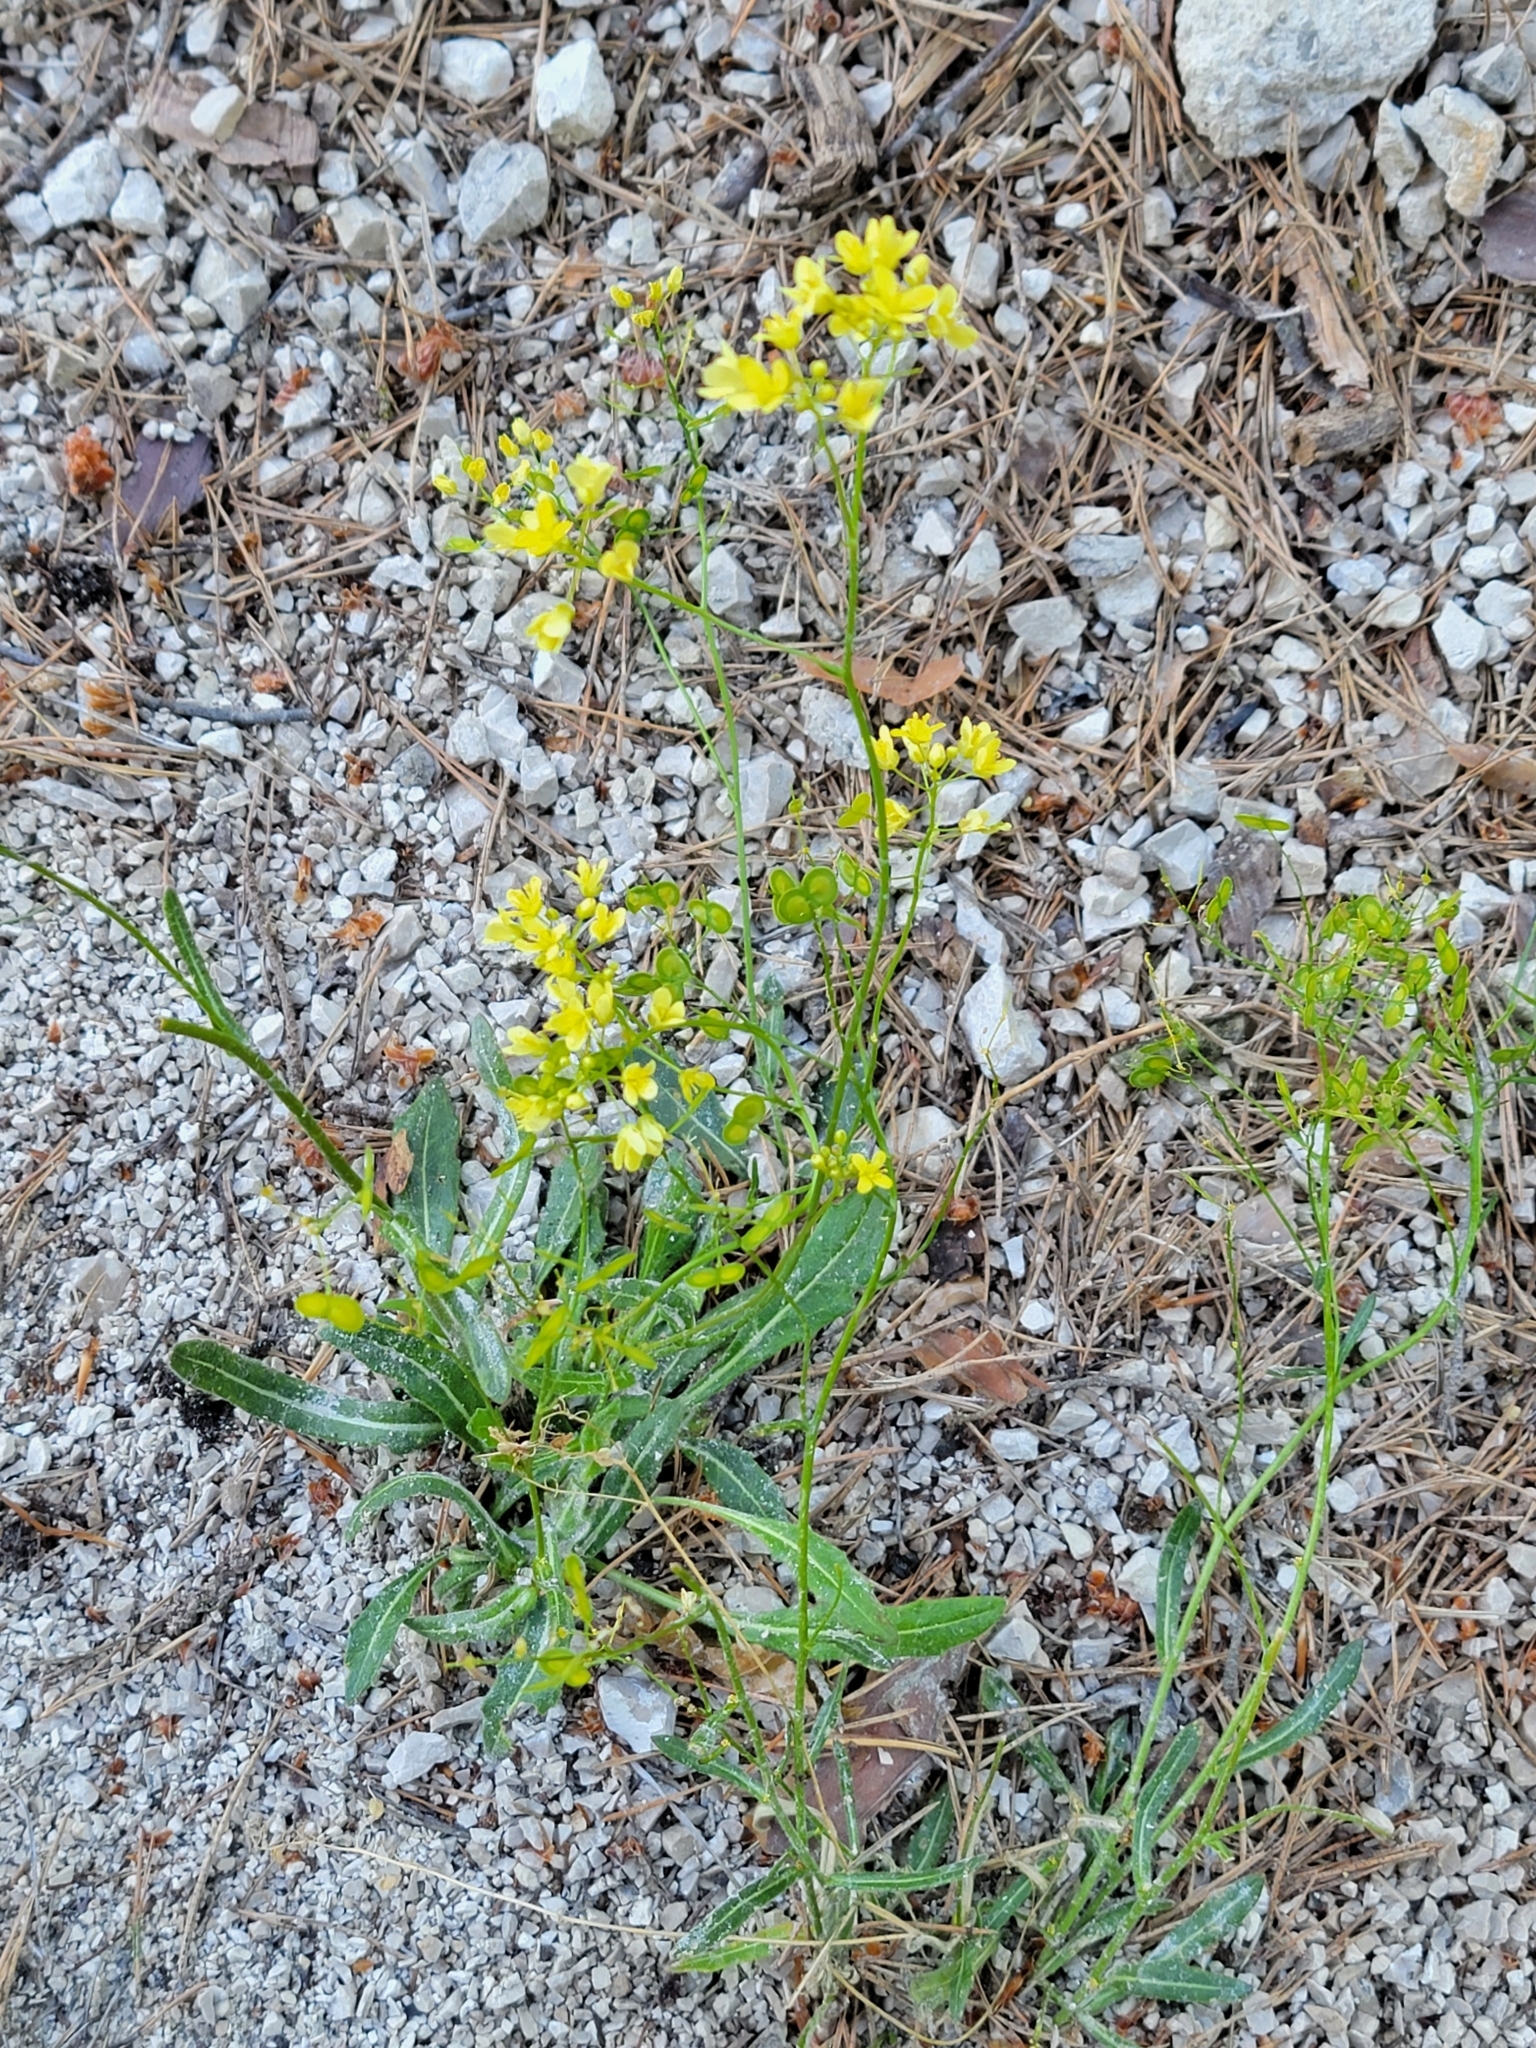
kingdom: Plantae
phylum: Tracheophyta
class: Magnoliopsida
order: Brassicales
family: Brassicaceae
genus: Biscutella
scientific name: Biscutella laevigata
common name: Buckler mustard
